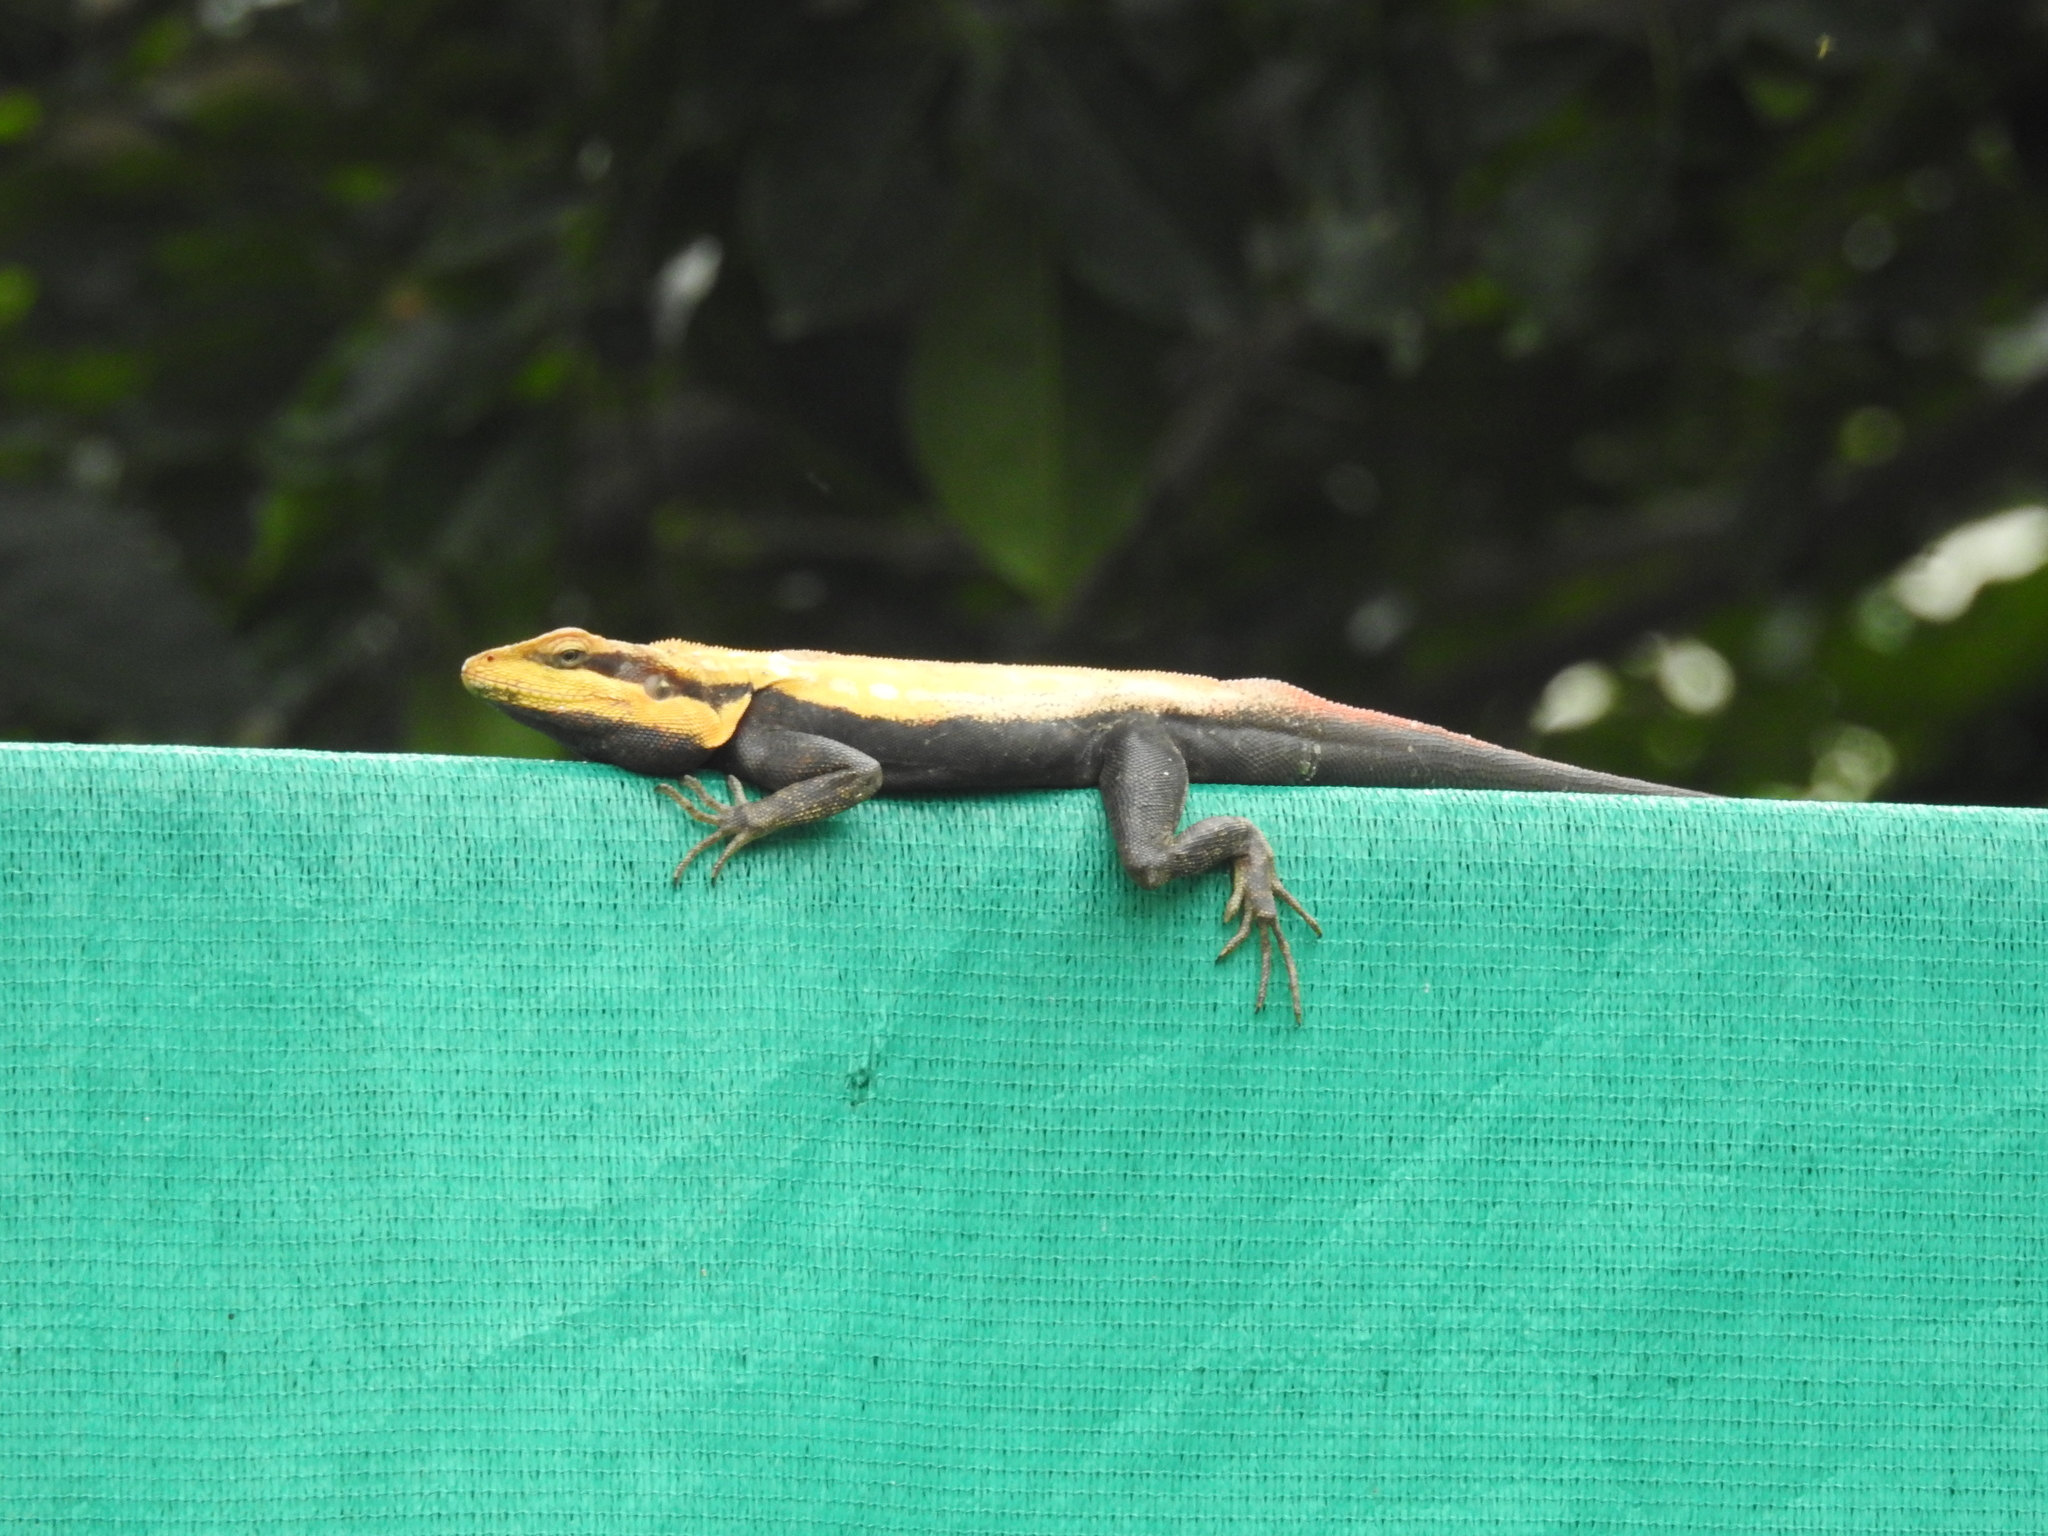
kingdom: Animalia
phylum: Chordata
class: Squamata
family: Agamidae
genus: Psammophilus
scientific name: Psammophilus dorsalis
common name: South indian rock agama
